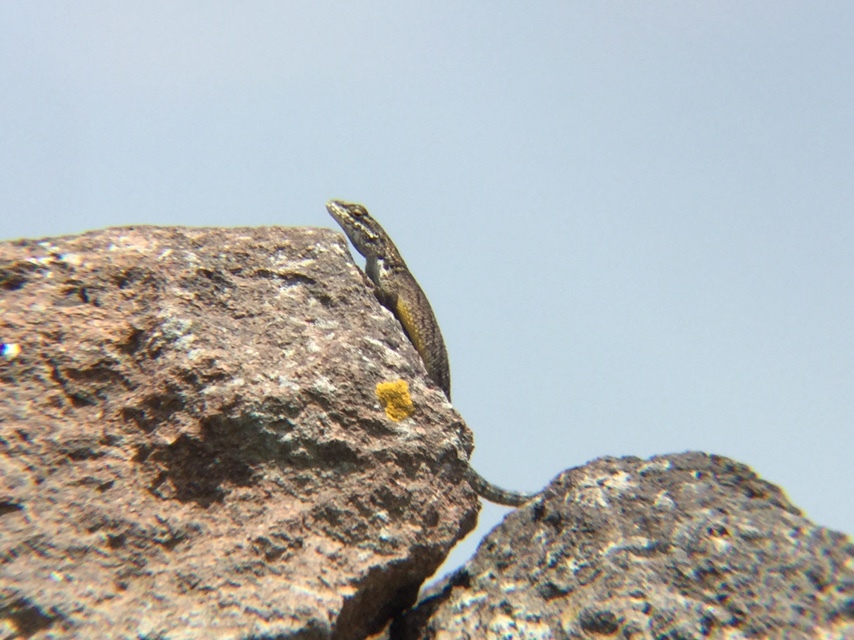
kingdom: Animalia
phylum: Chordata
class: Squamata
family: Phrynosomatidae
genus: Sceloporus
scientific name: Sceloporus dugesii
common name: Duges' spiny lizard
